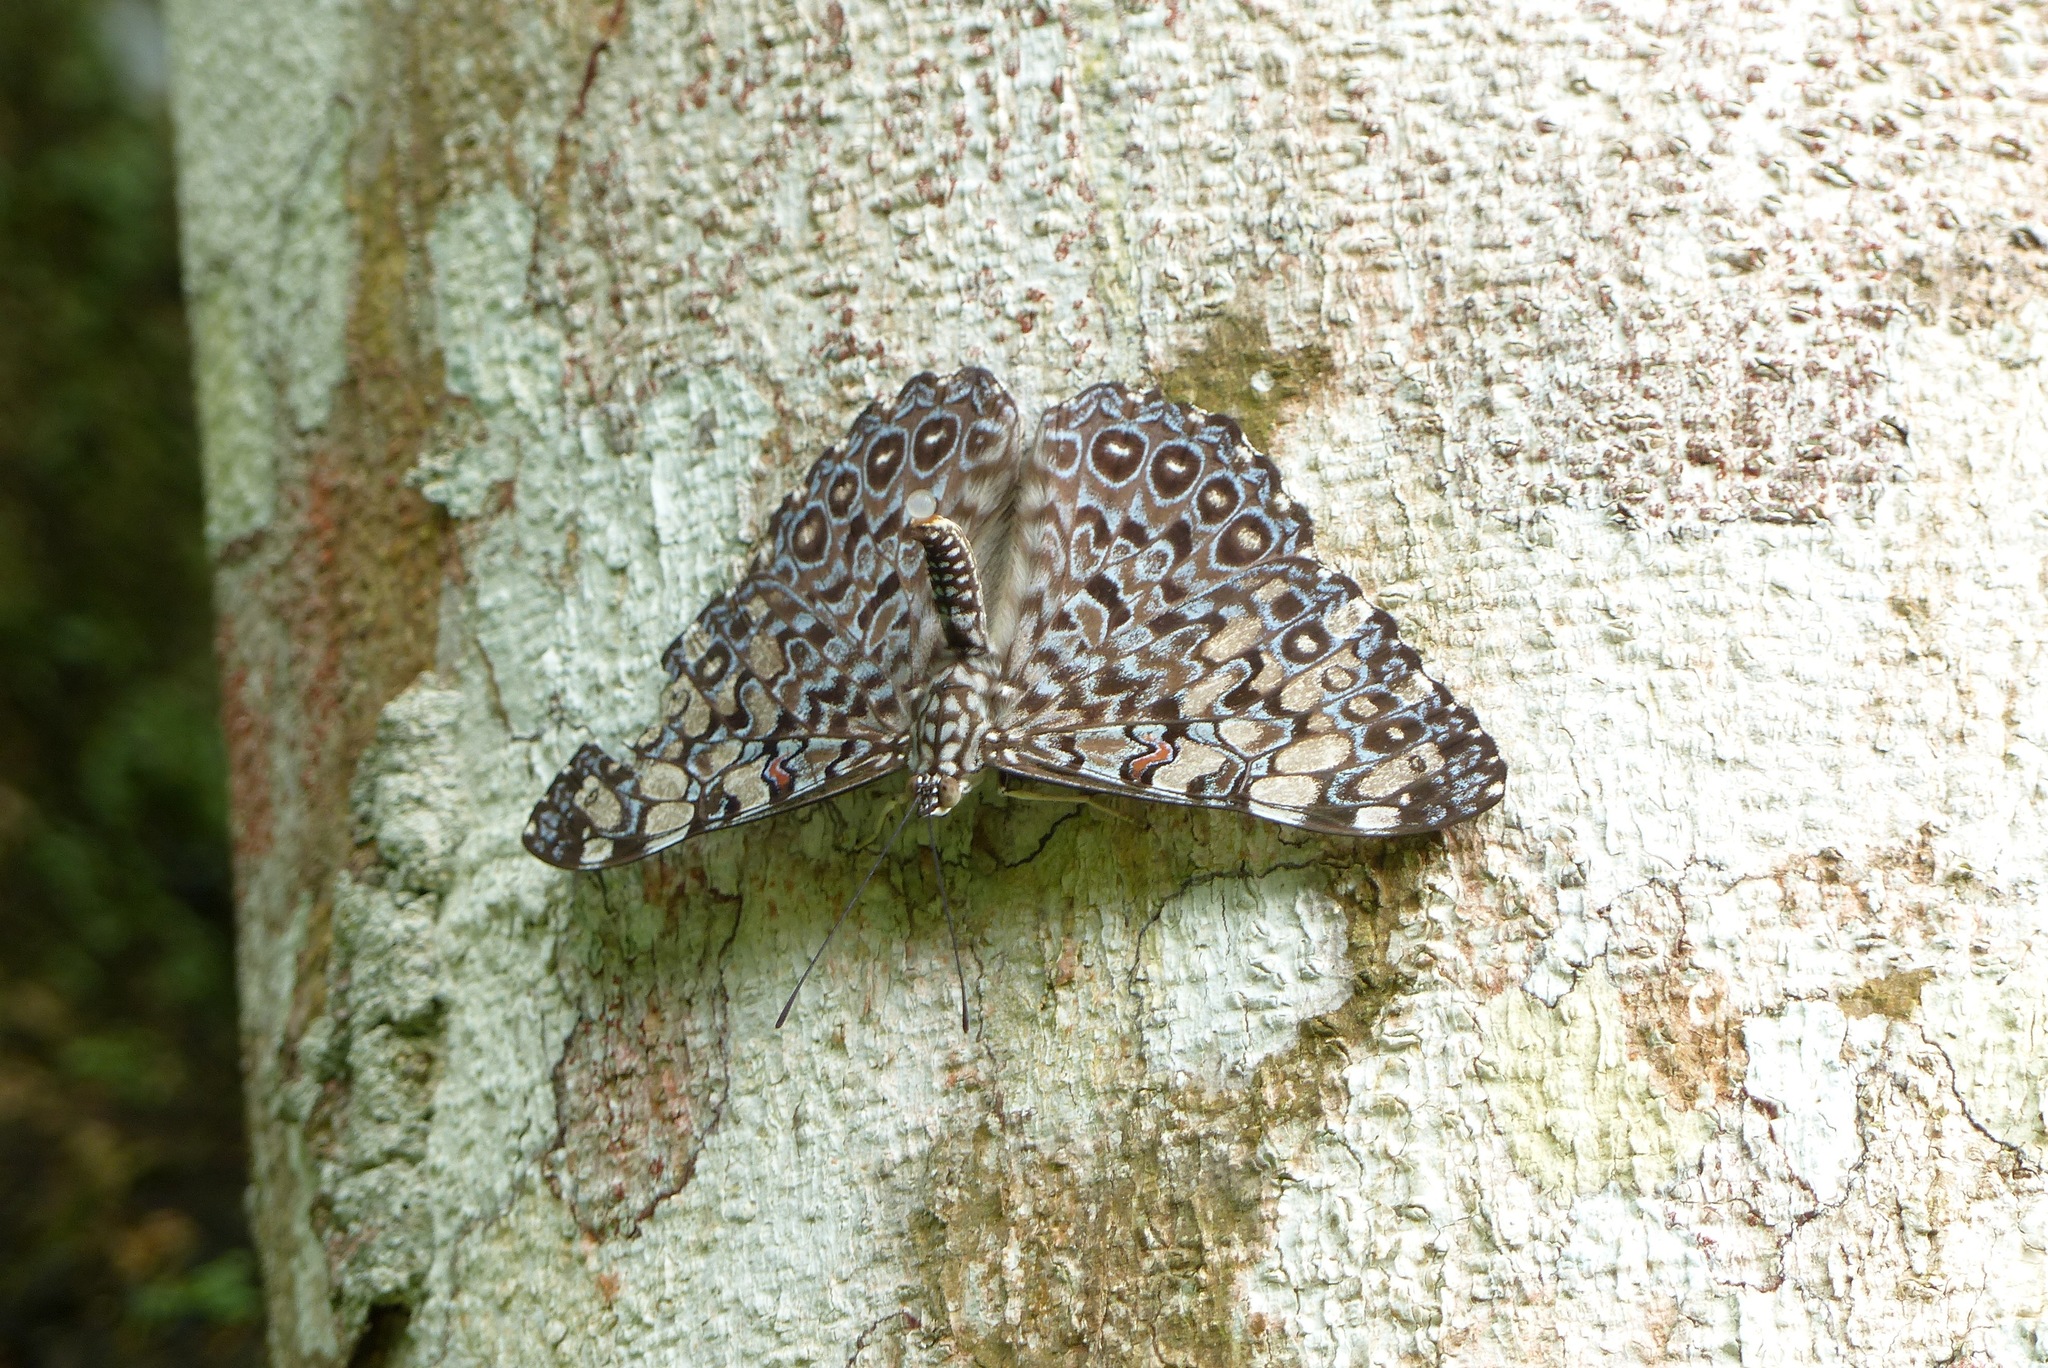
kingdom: Animalia
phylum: Arthropoda
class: Insecta
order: Lepidoptera
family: Nymphalidae
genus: Hamadryas
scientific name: Hamadryas feronia
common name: Variable cracker
